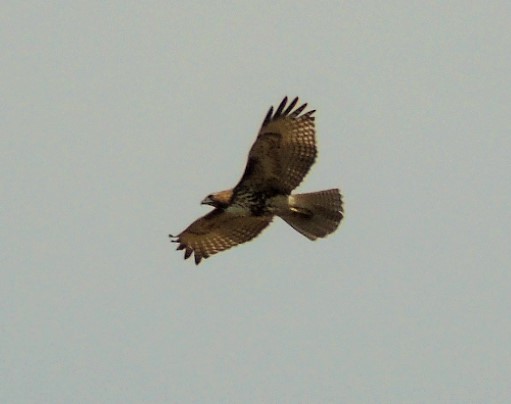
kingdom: Animalia
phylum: Chordata
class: Aves
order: Accipitriformes
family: Accipitridae
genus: Buteo
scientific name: Buteo jamaicensis
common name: Red-tailed hawk
